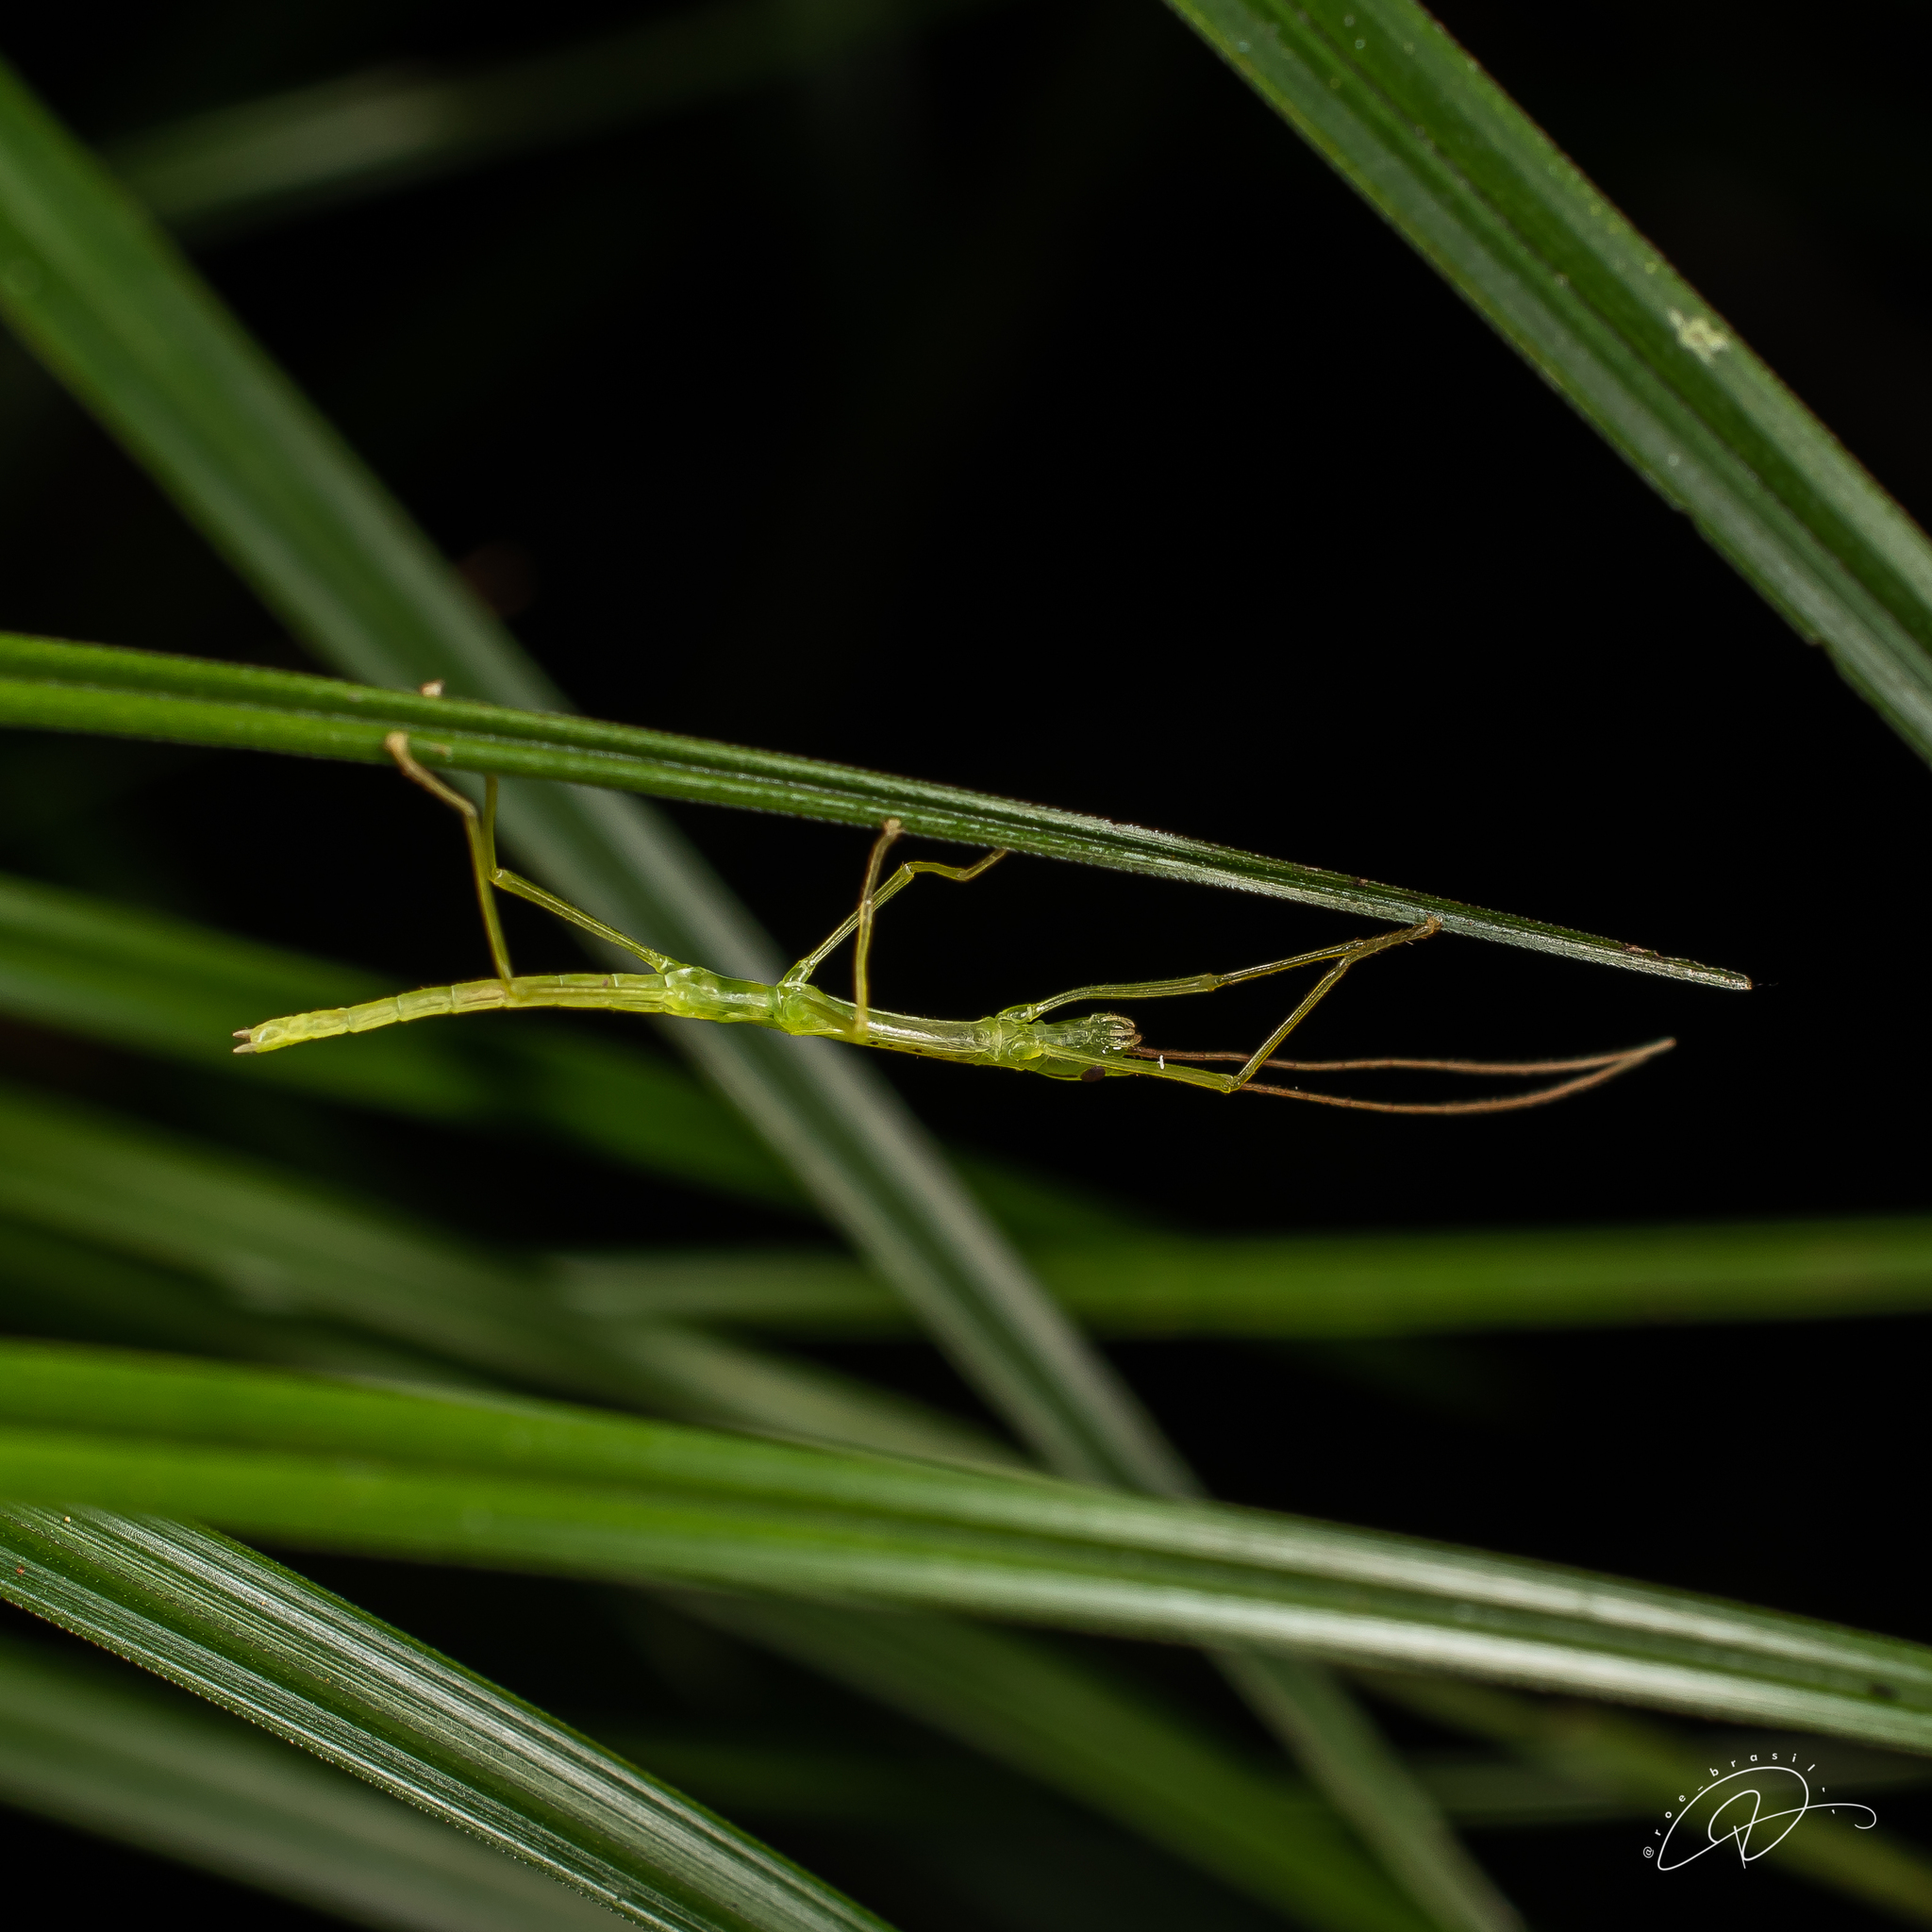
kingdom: Animalia
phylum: Arthropoda
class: Insecta
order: Phasmida
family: Pseudophasmatidae
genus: Isagoras
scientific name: Isagoras melzeri
